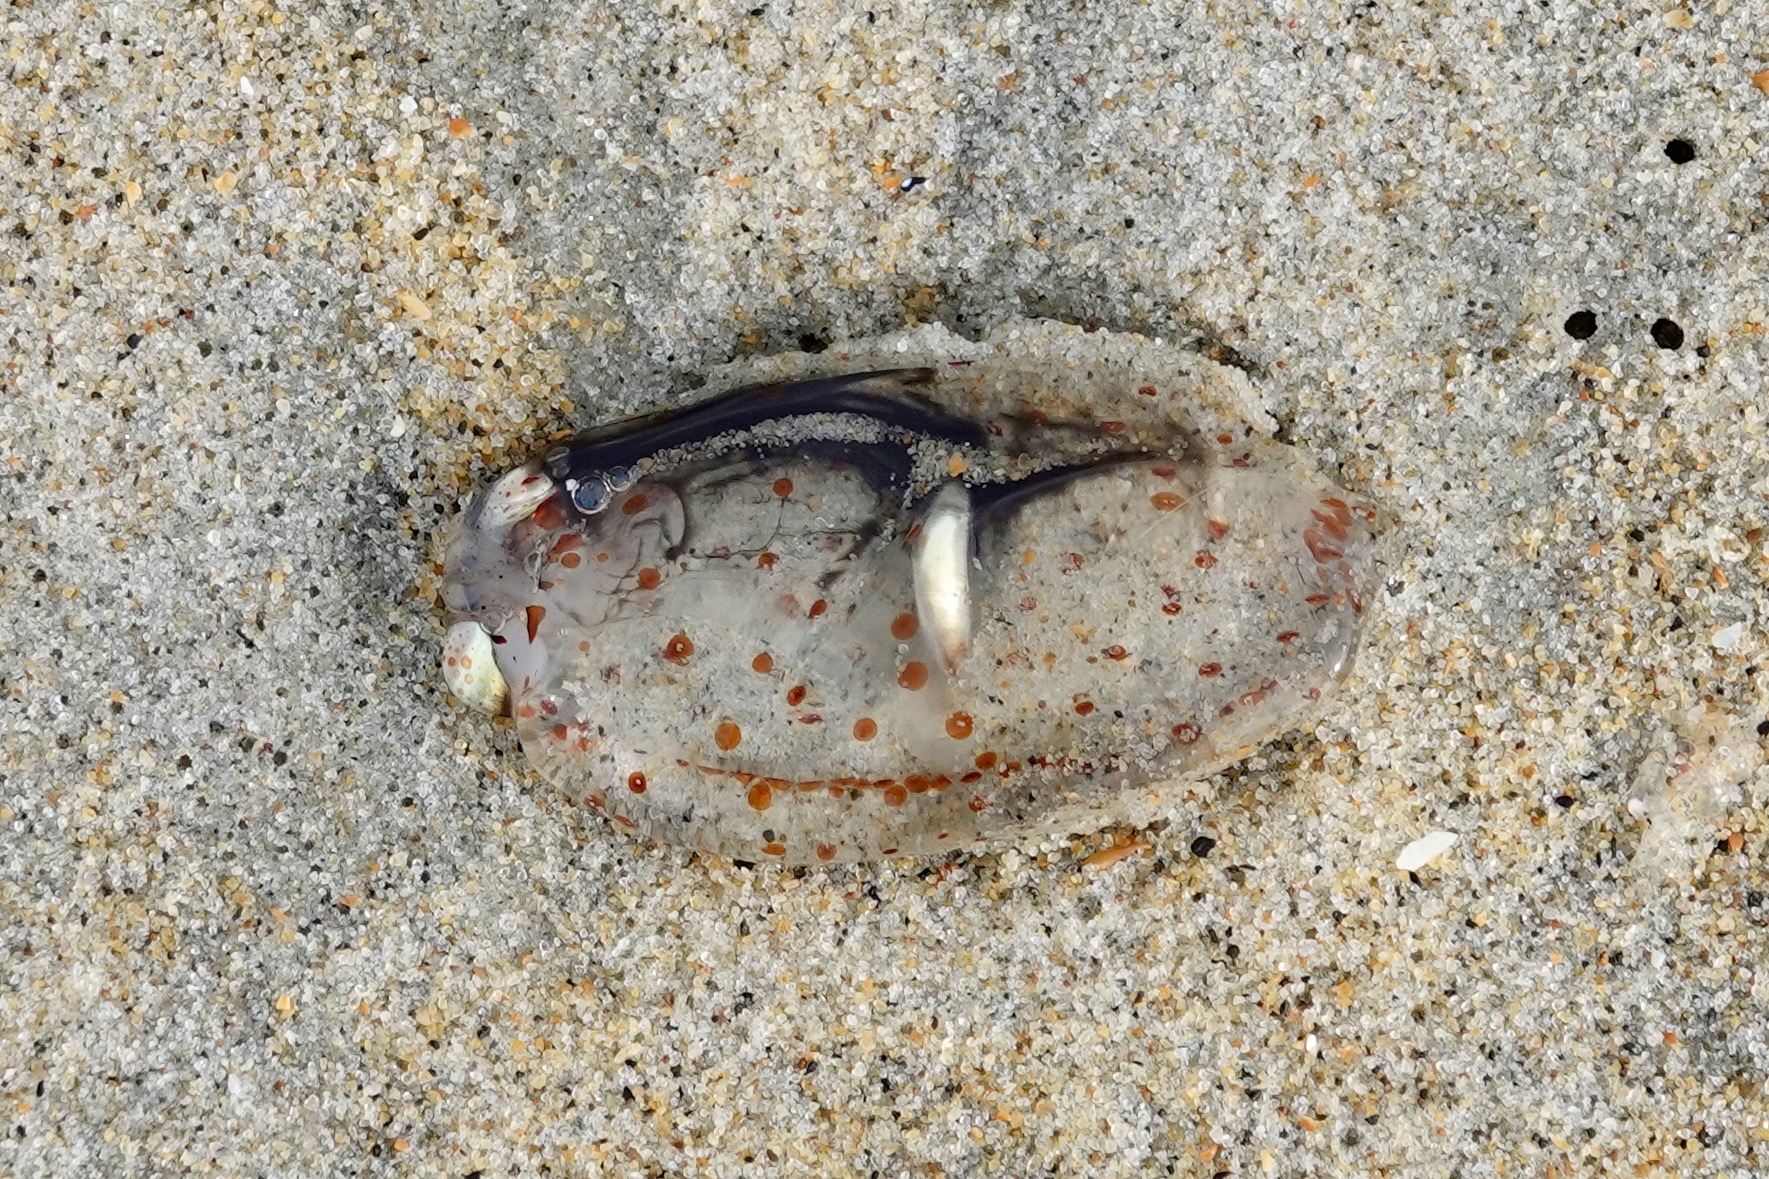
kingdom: Animalia
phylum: Cnidaria
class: Scyphozoa
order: Semaeostomeae
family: Cyaneidae
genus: Desmonema
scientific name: Desmonema gaudichaudi
